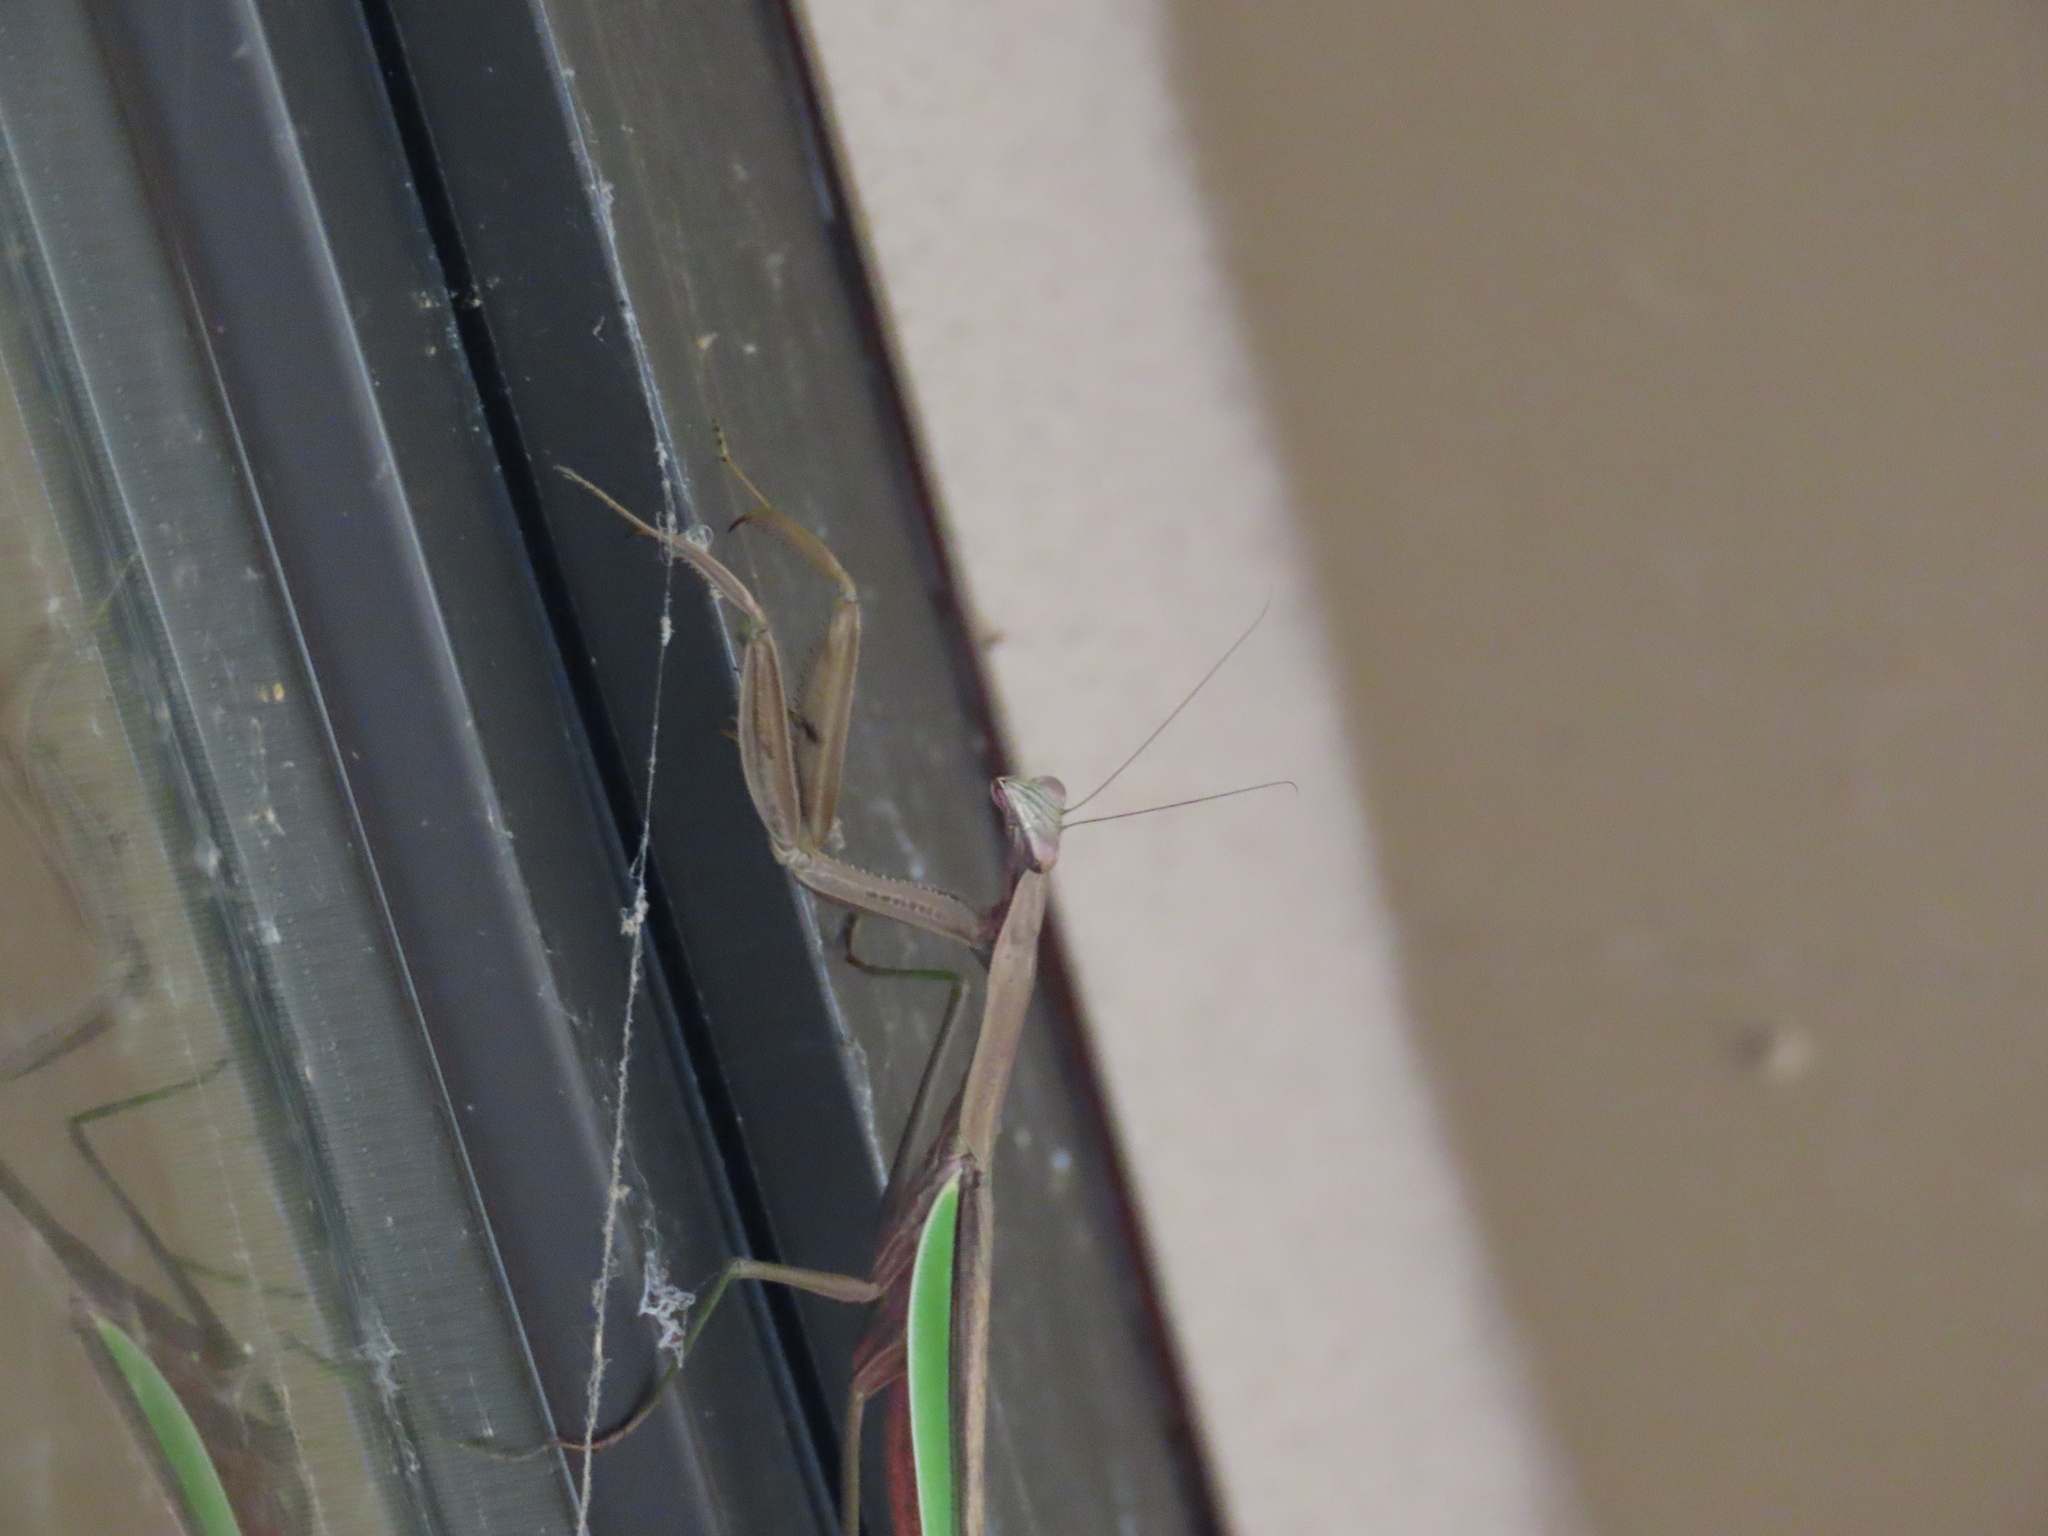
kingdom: Animalia
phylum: Arthropoda
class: Insecta
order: Mantodea
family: Mantidae
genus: Tenodera
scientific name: Tenodera sinensis
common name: Chinese mantis
